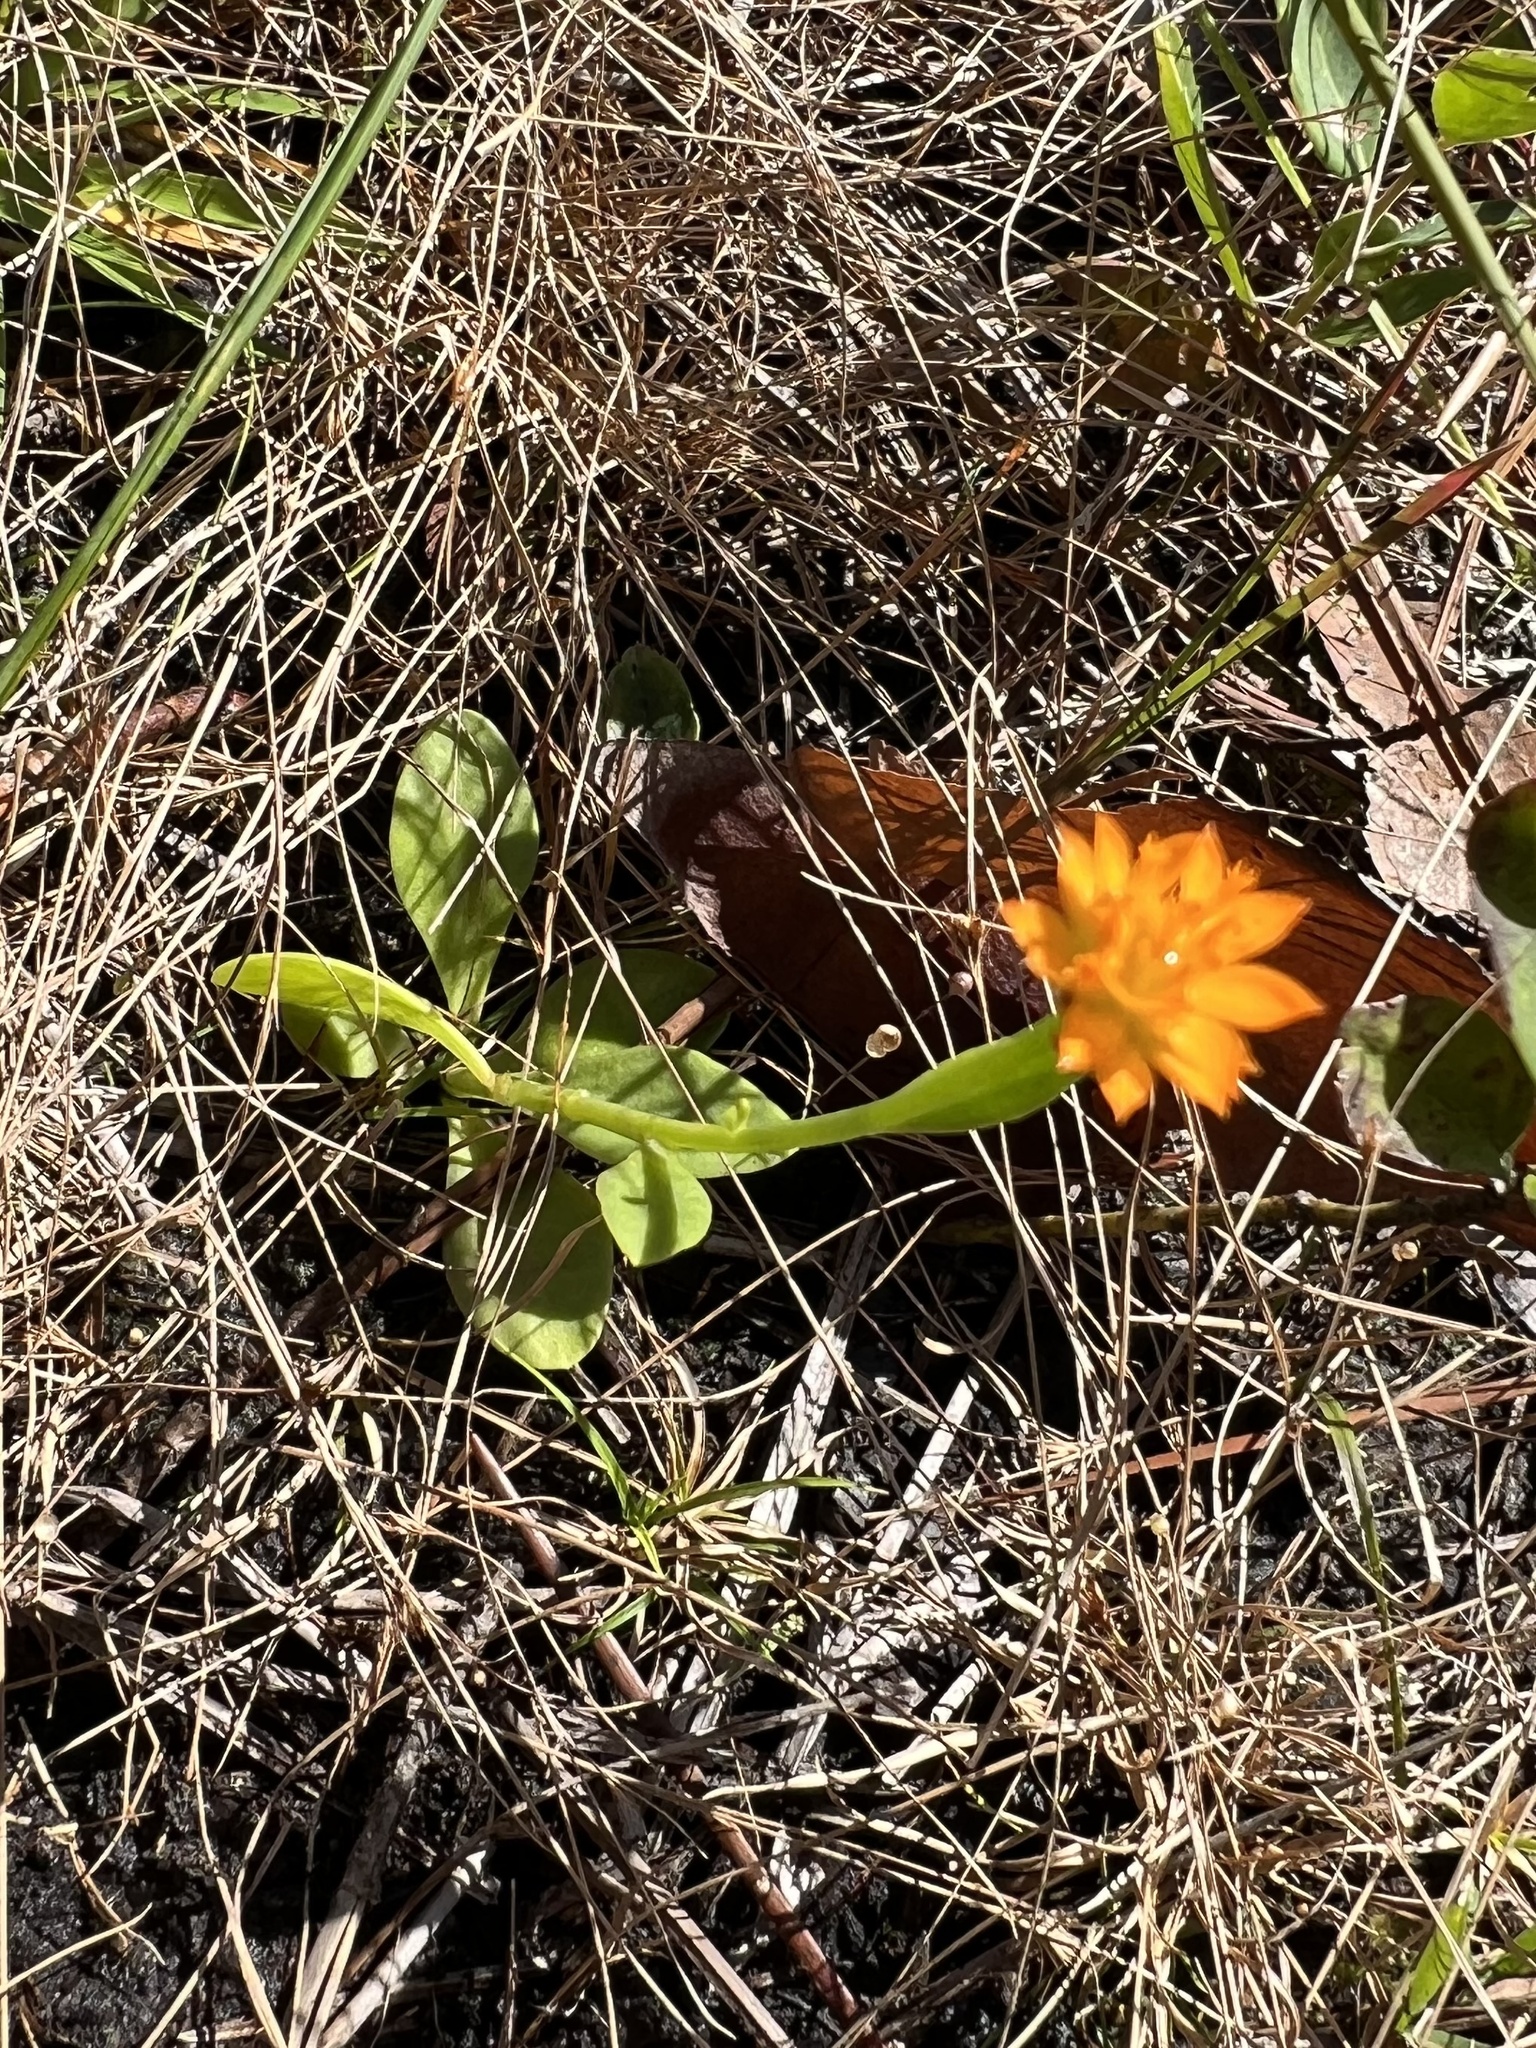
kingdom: Plantae
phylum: Tracheophyta
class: Magnoliopsida
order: Fabales
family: Polygalaceae
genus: Polygala
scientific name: Polygala lutea
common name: Orange milkwort
